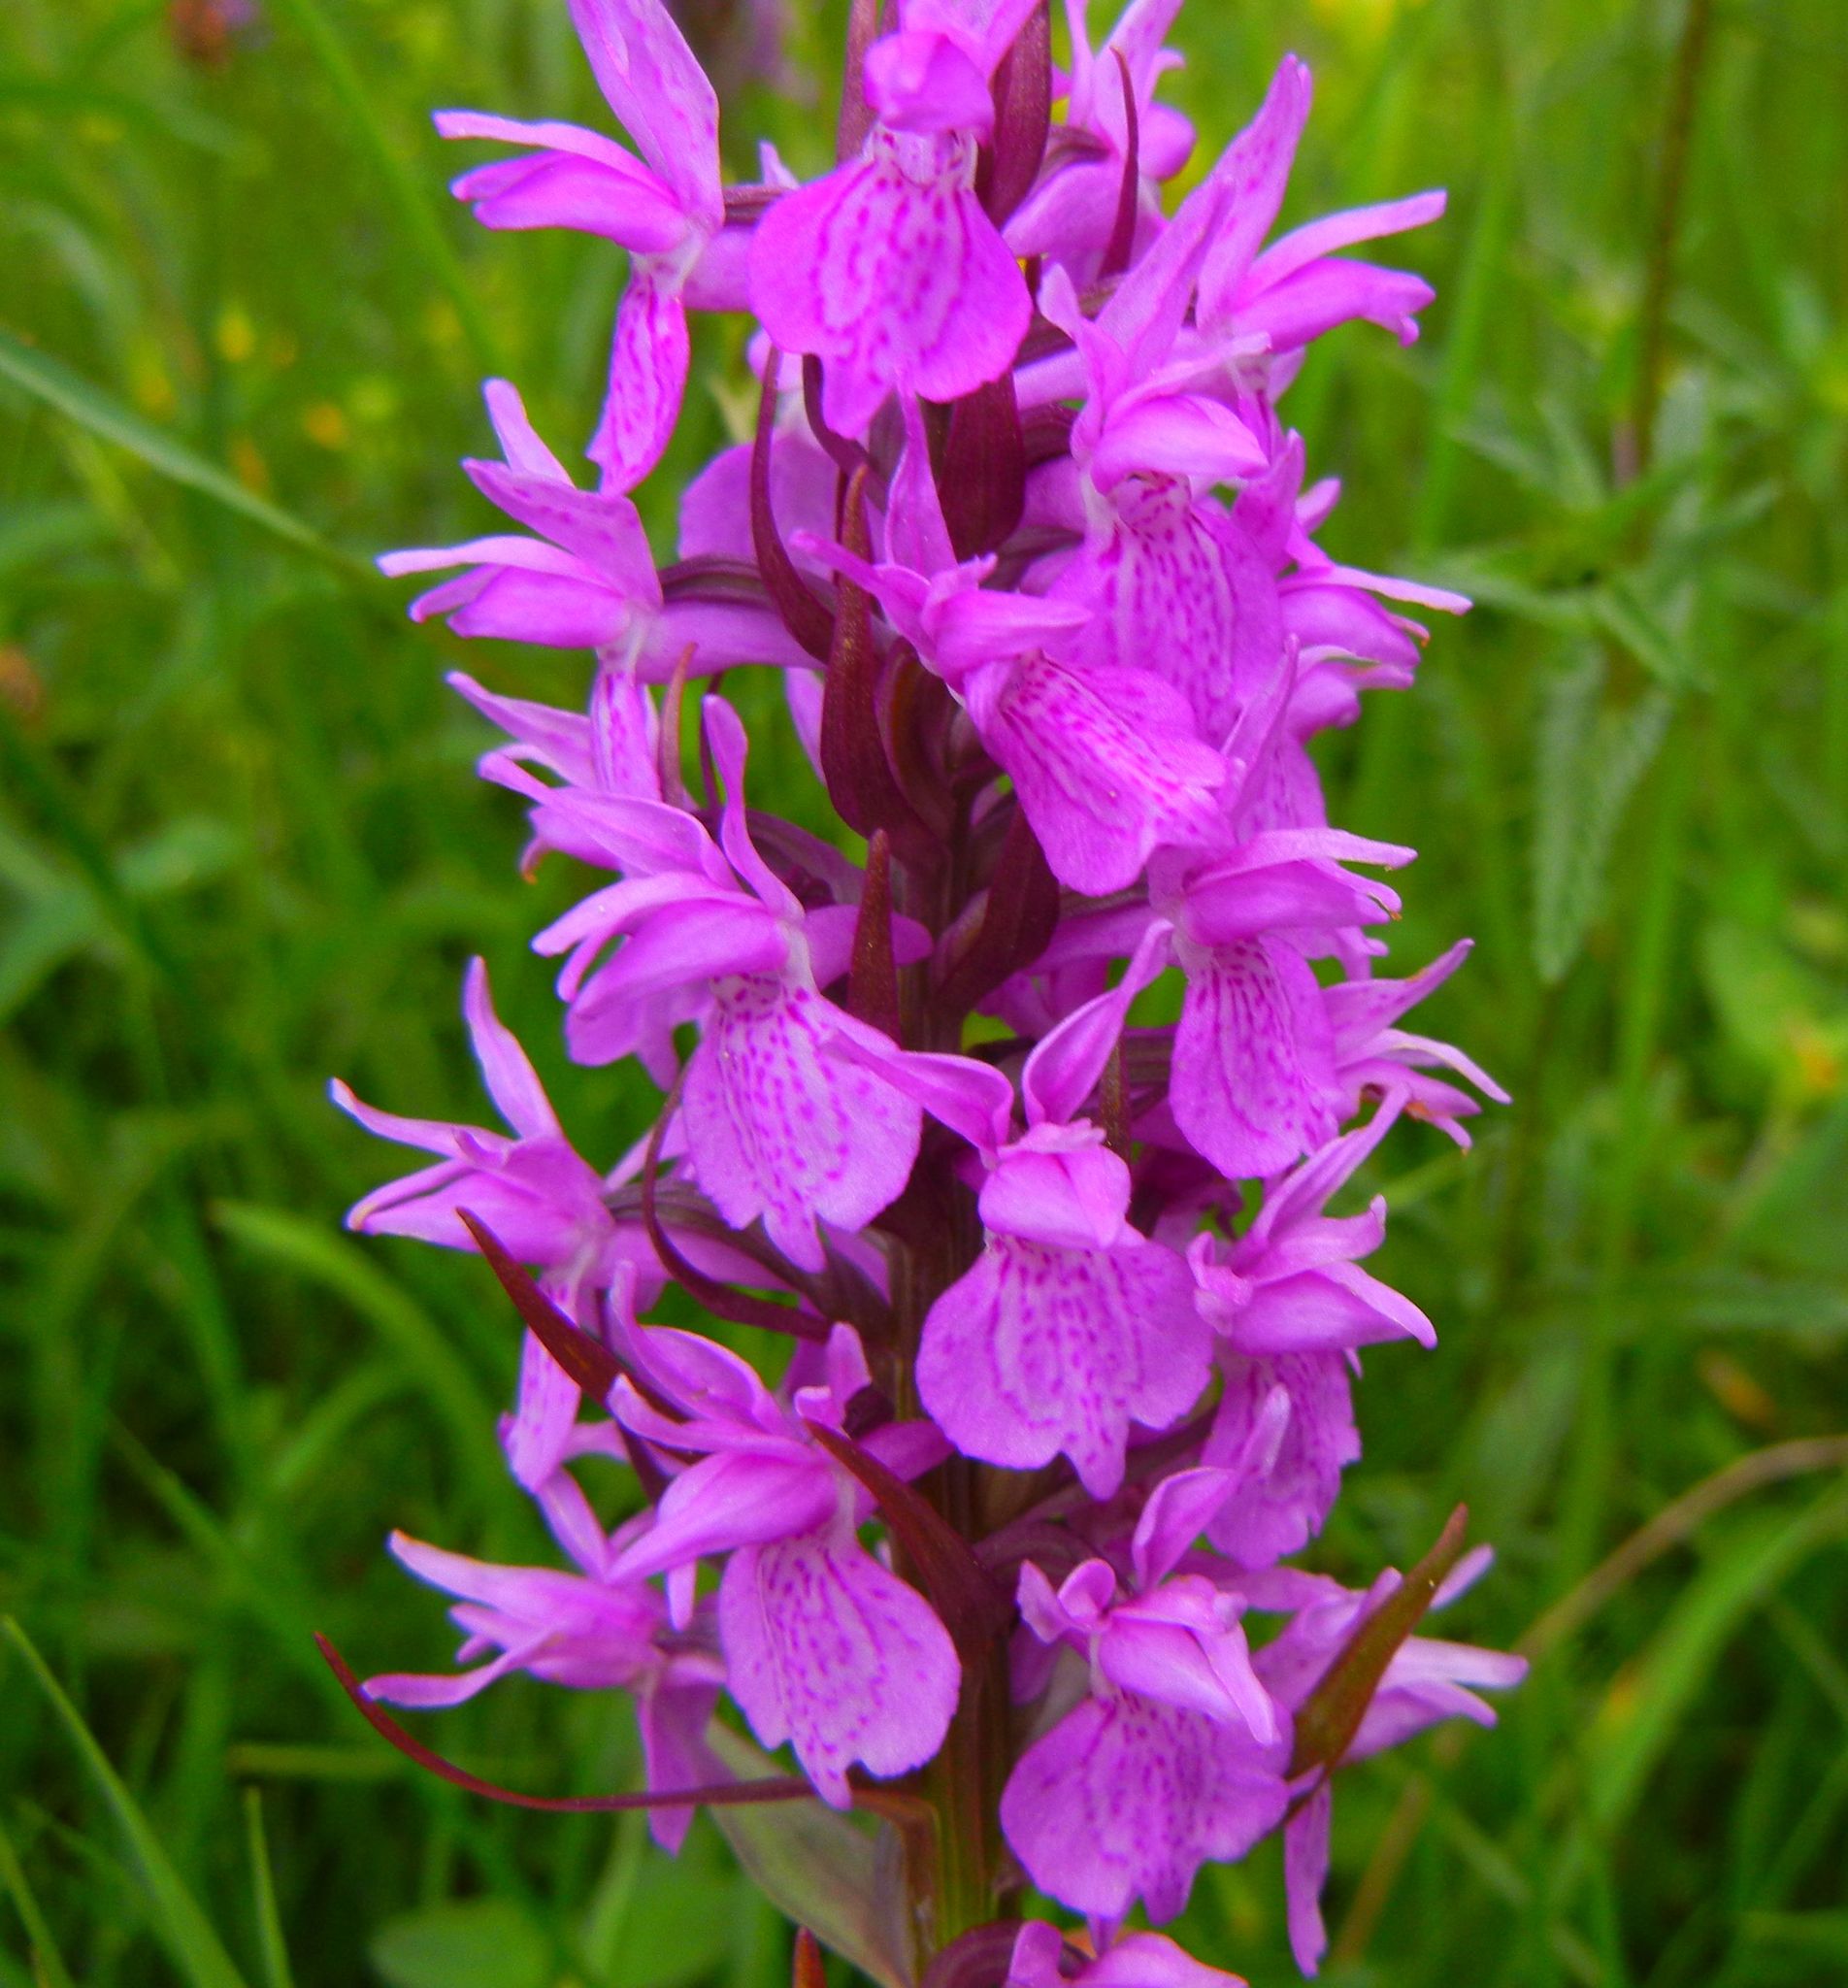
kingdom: Plantae
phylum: Tracheophyta
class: Liliopsida
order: Asparagales
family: Orchidaceae
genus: Dactylorhiza
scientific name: Dactylorhiza majalis
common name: Marsh orchid
